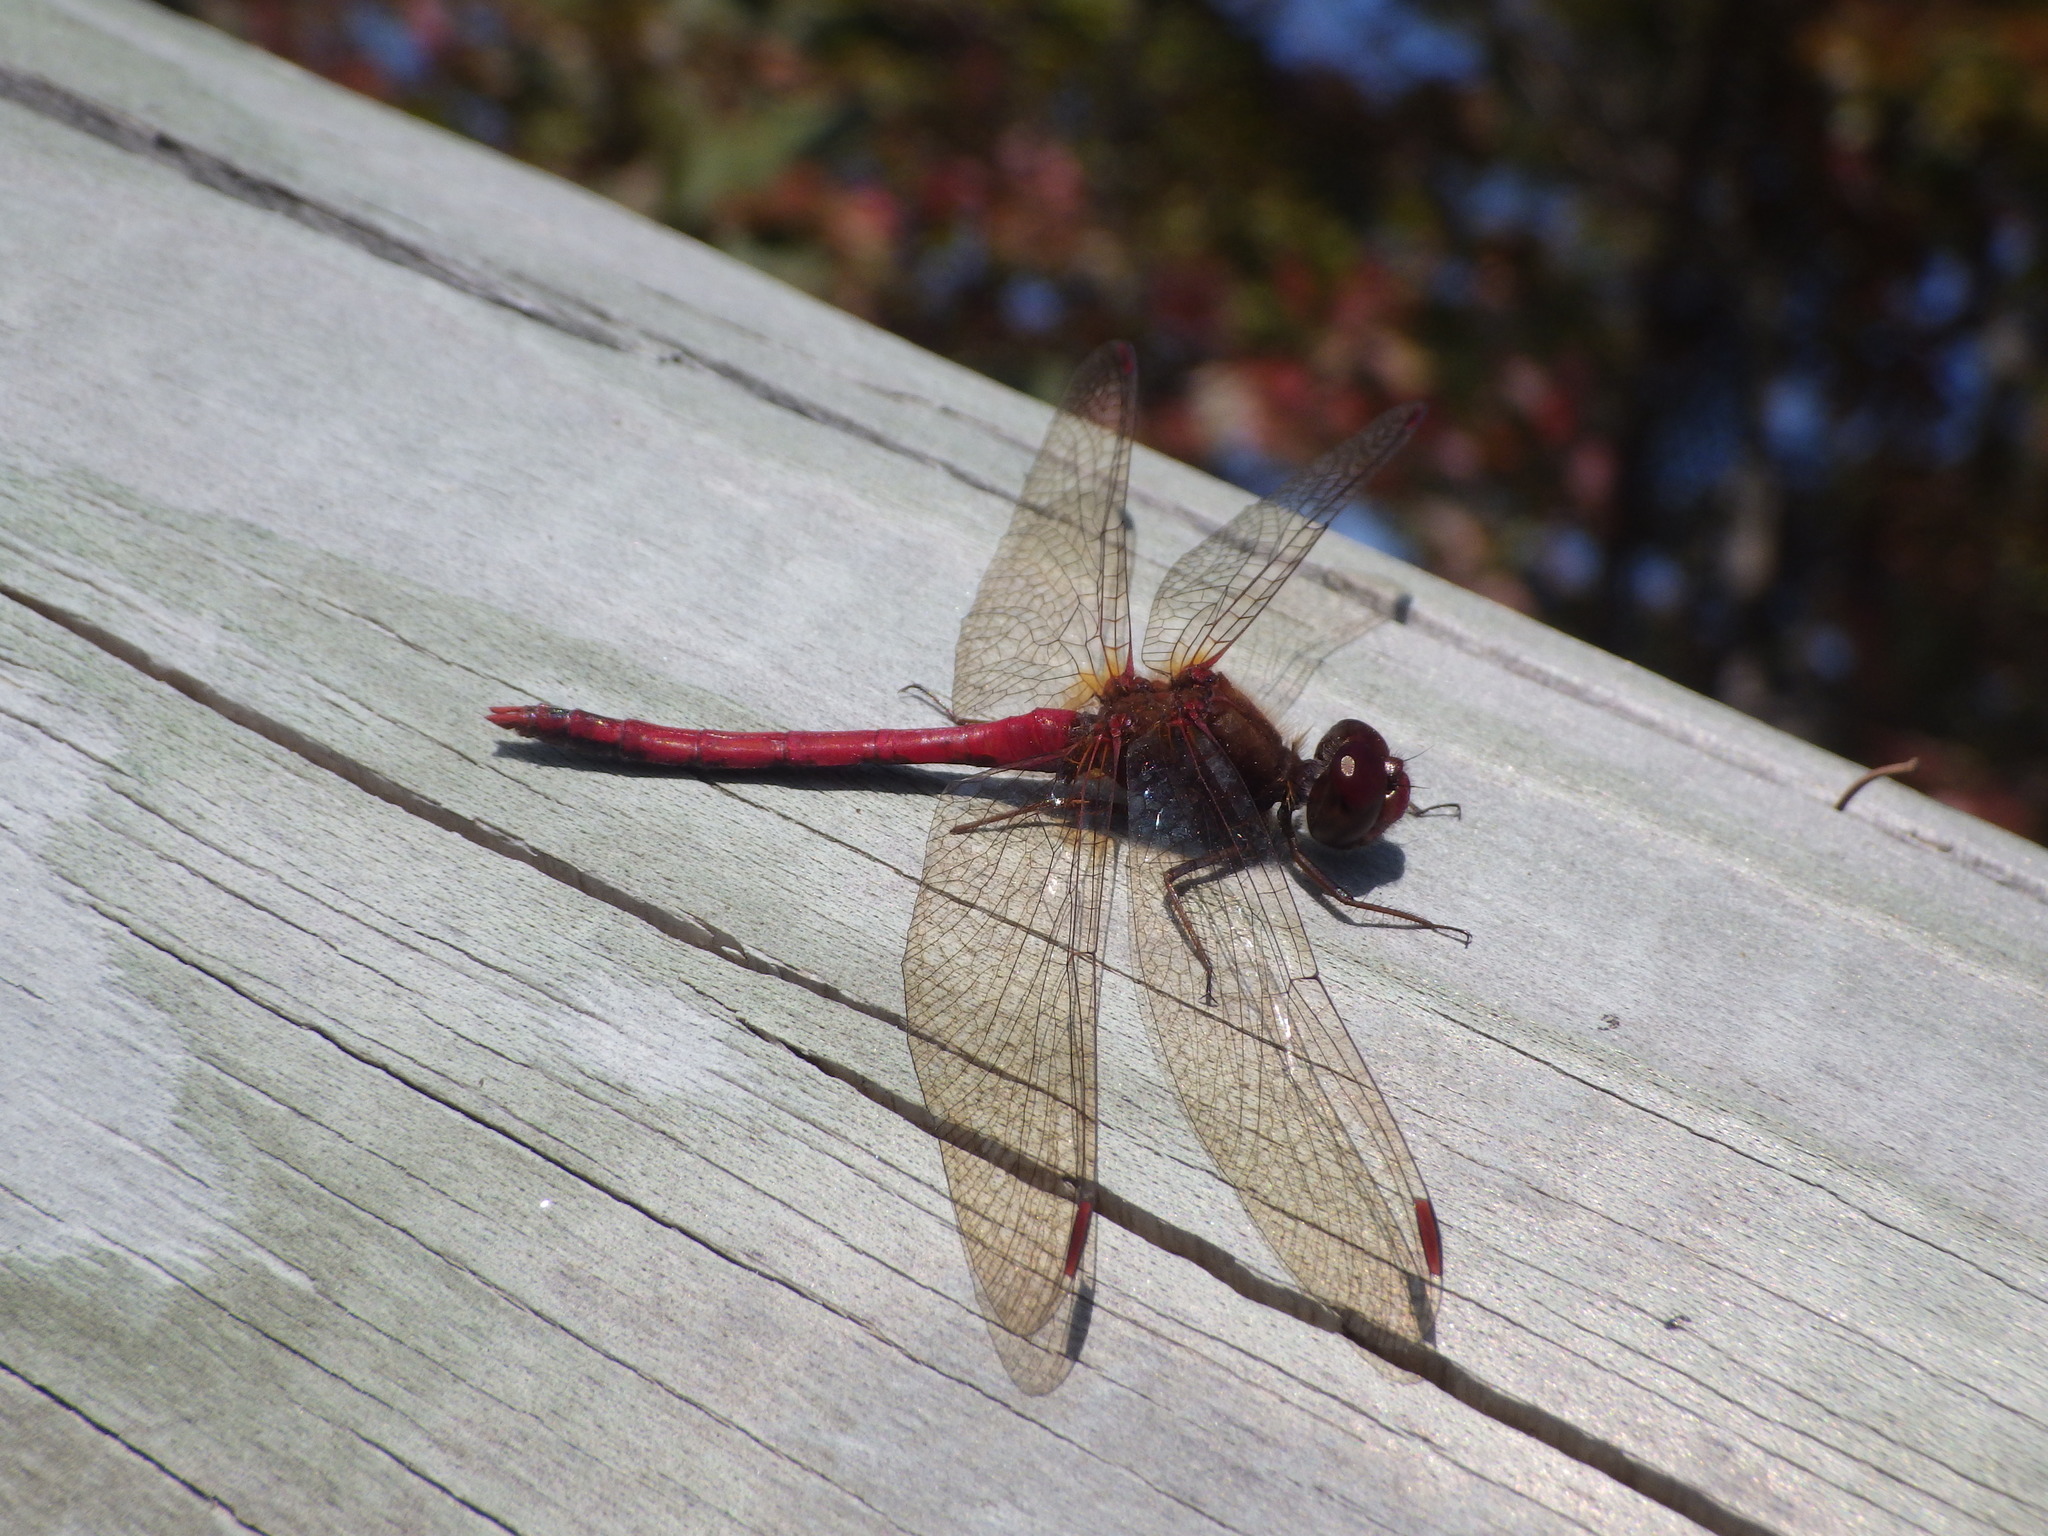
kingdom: Animalia
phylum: Arthropoda
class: Insecta
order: Odonata
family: Libellulidae
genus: Sympetrum
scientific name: Sympetrum vicinum
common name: Autumn meadowhawk
